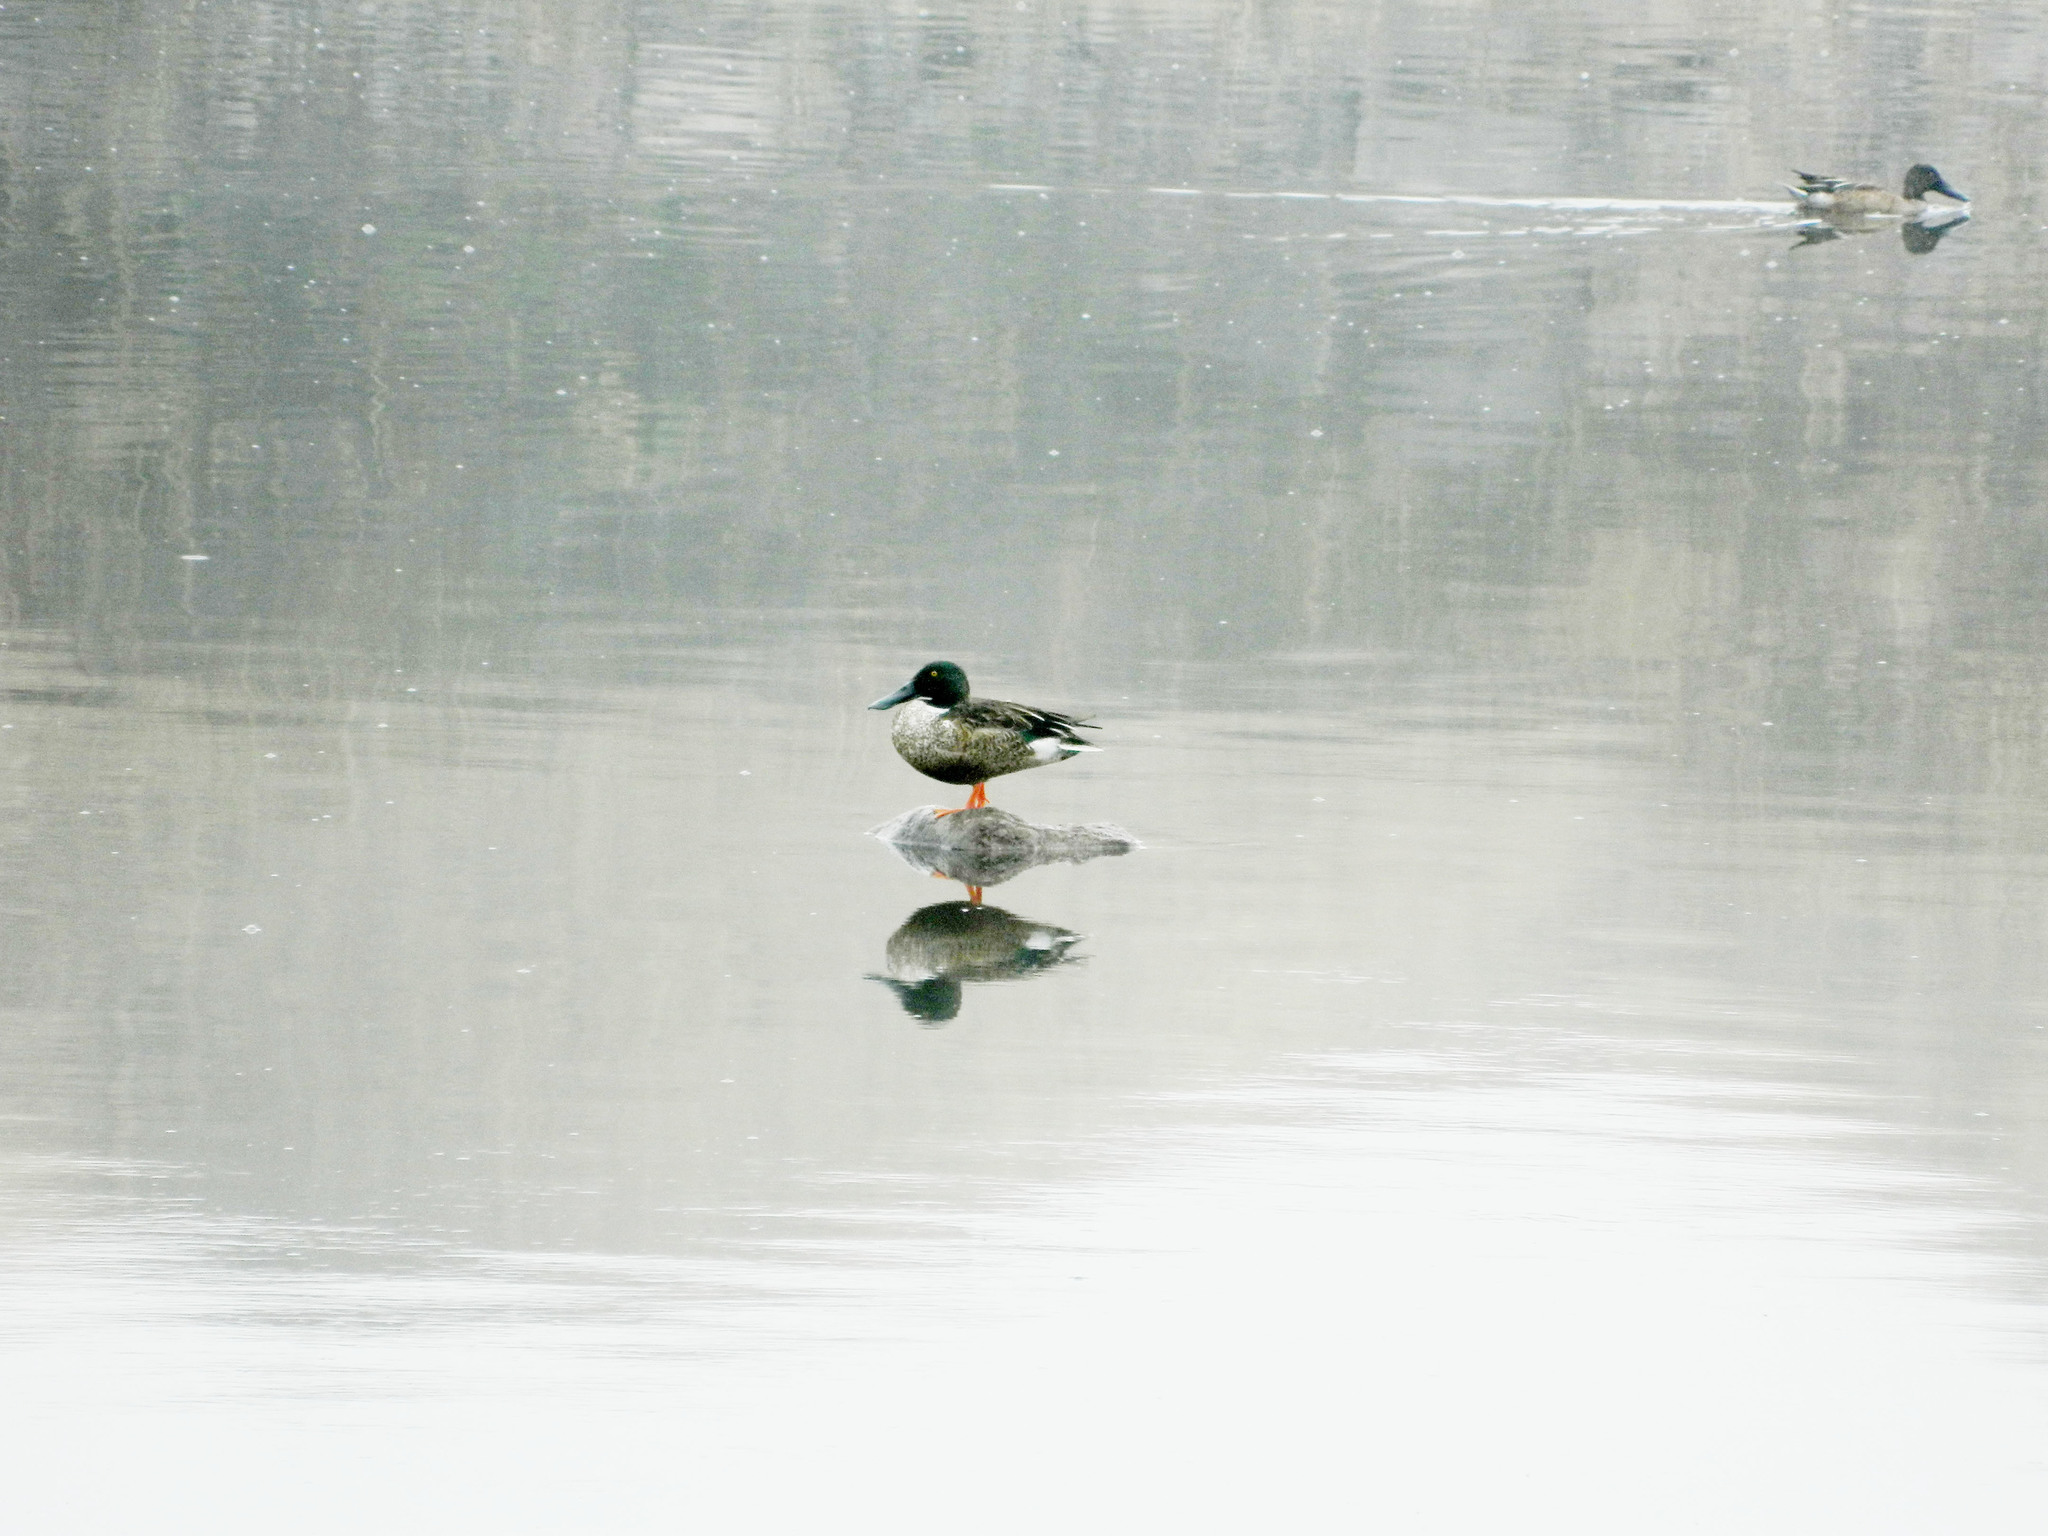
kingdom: Animalia
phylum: Chordata
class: Aves
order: Anseriformes
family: Anatidae
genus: Spatula
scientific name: Spatula clypeata
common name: Northern shoveler
